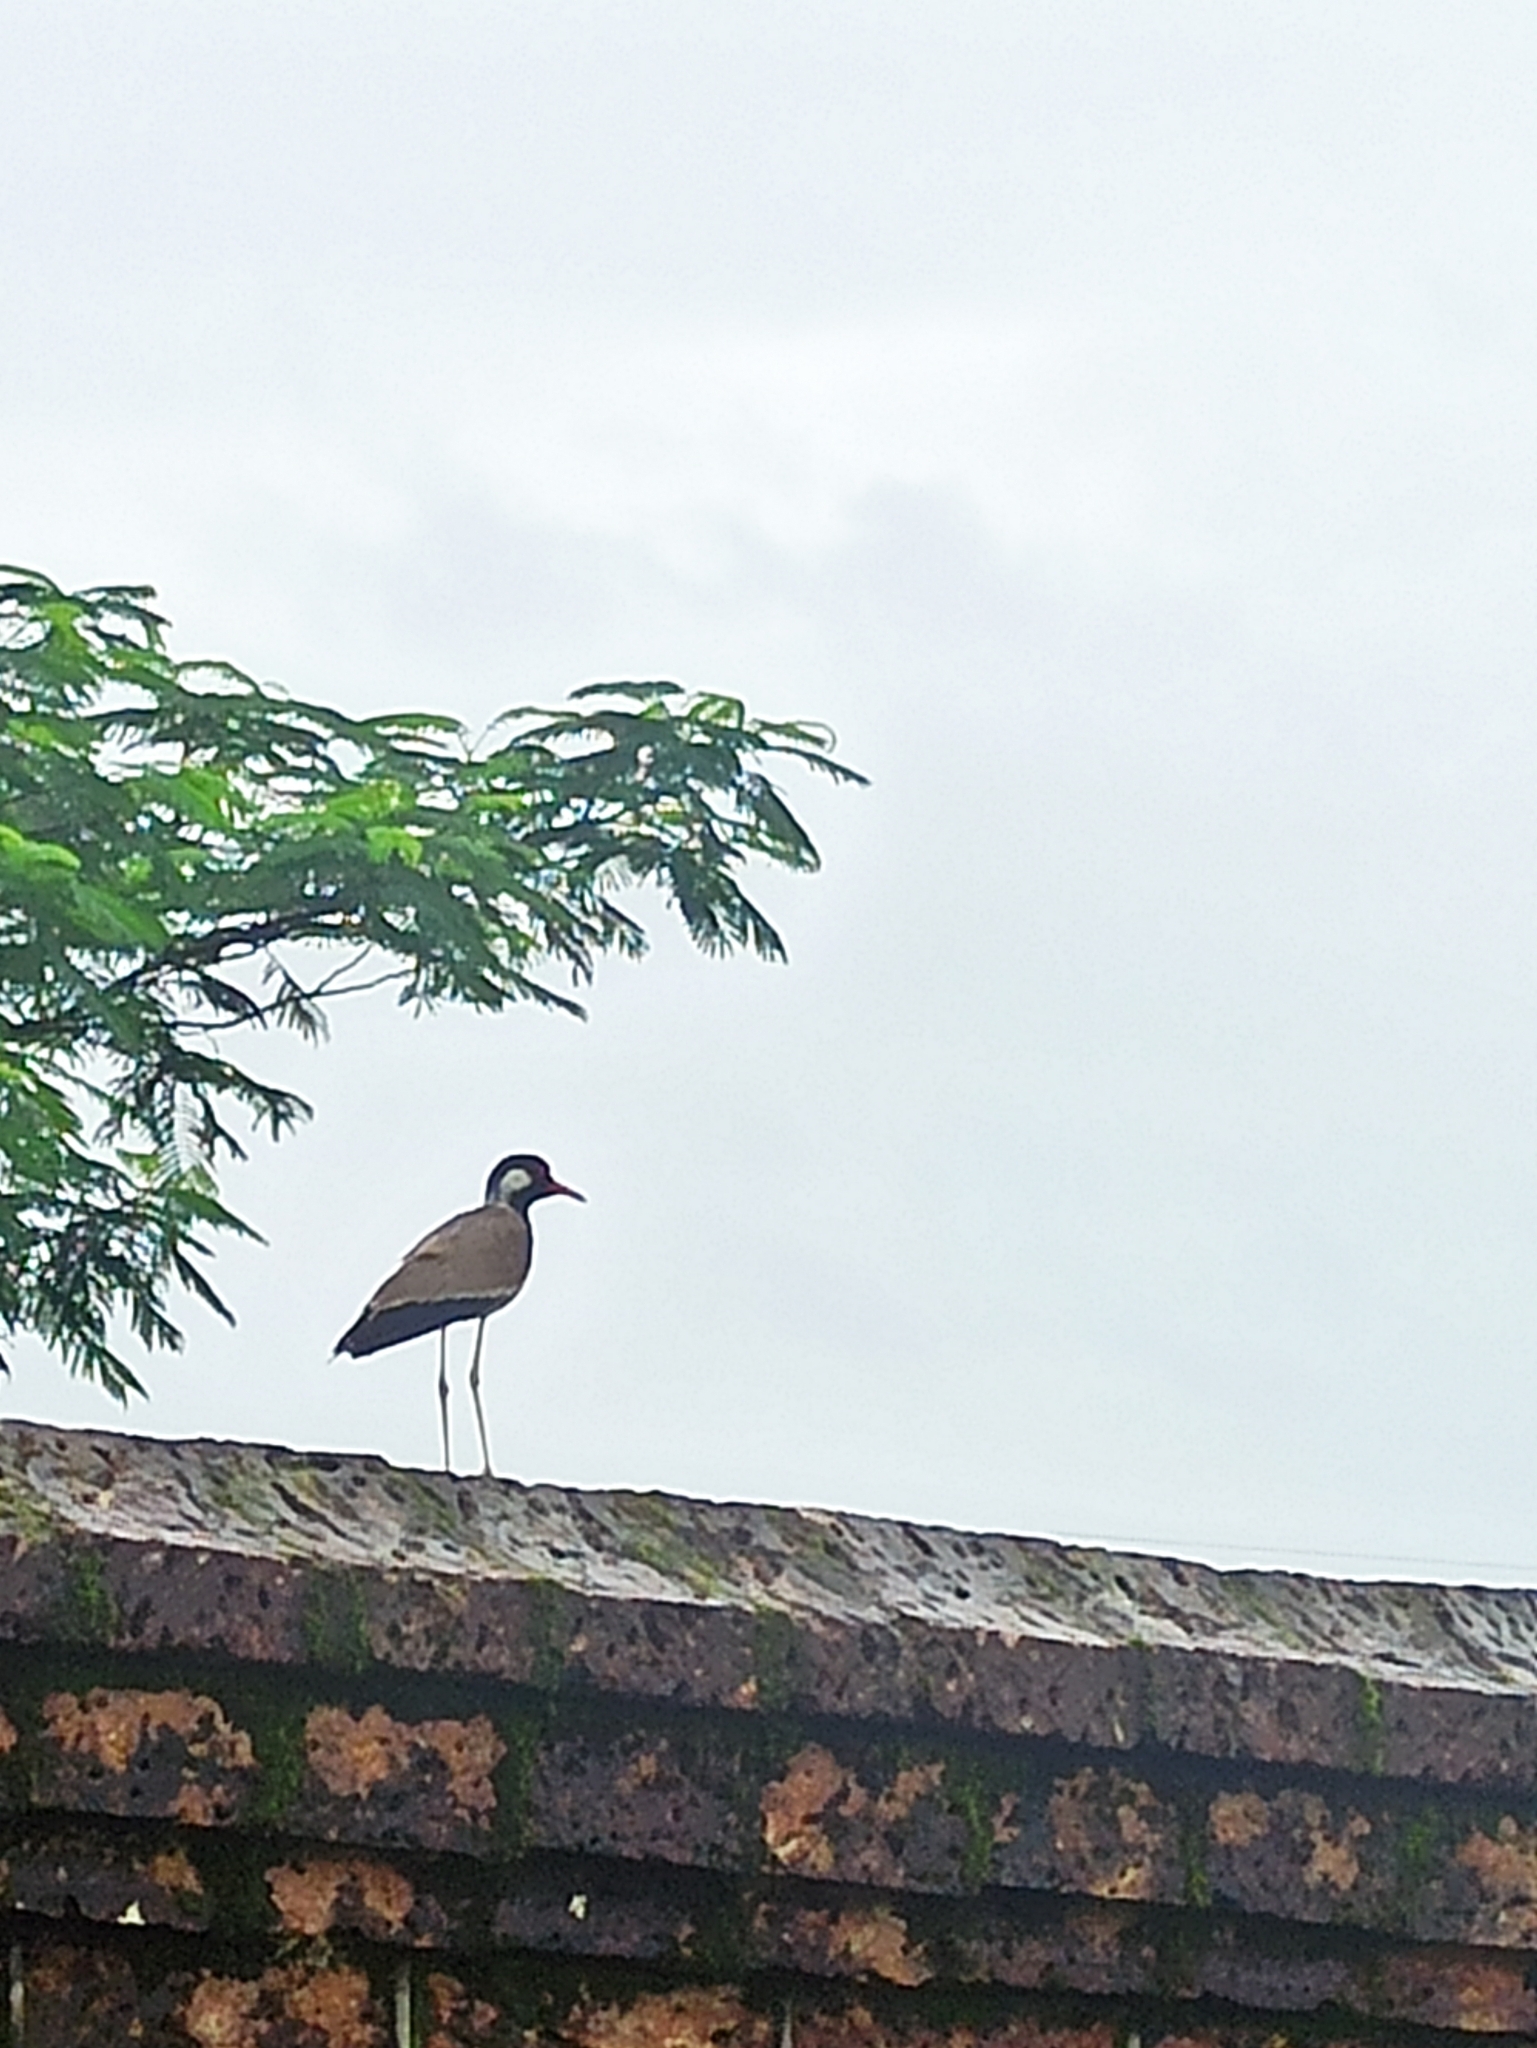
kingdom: Animalia
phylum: Chordata
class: Aves
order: Charadriiformes
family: Charadriidae
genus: Vanellus
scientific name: Vanellus indicus
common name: Red-wattled lapwing
